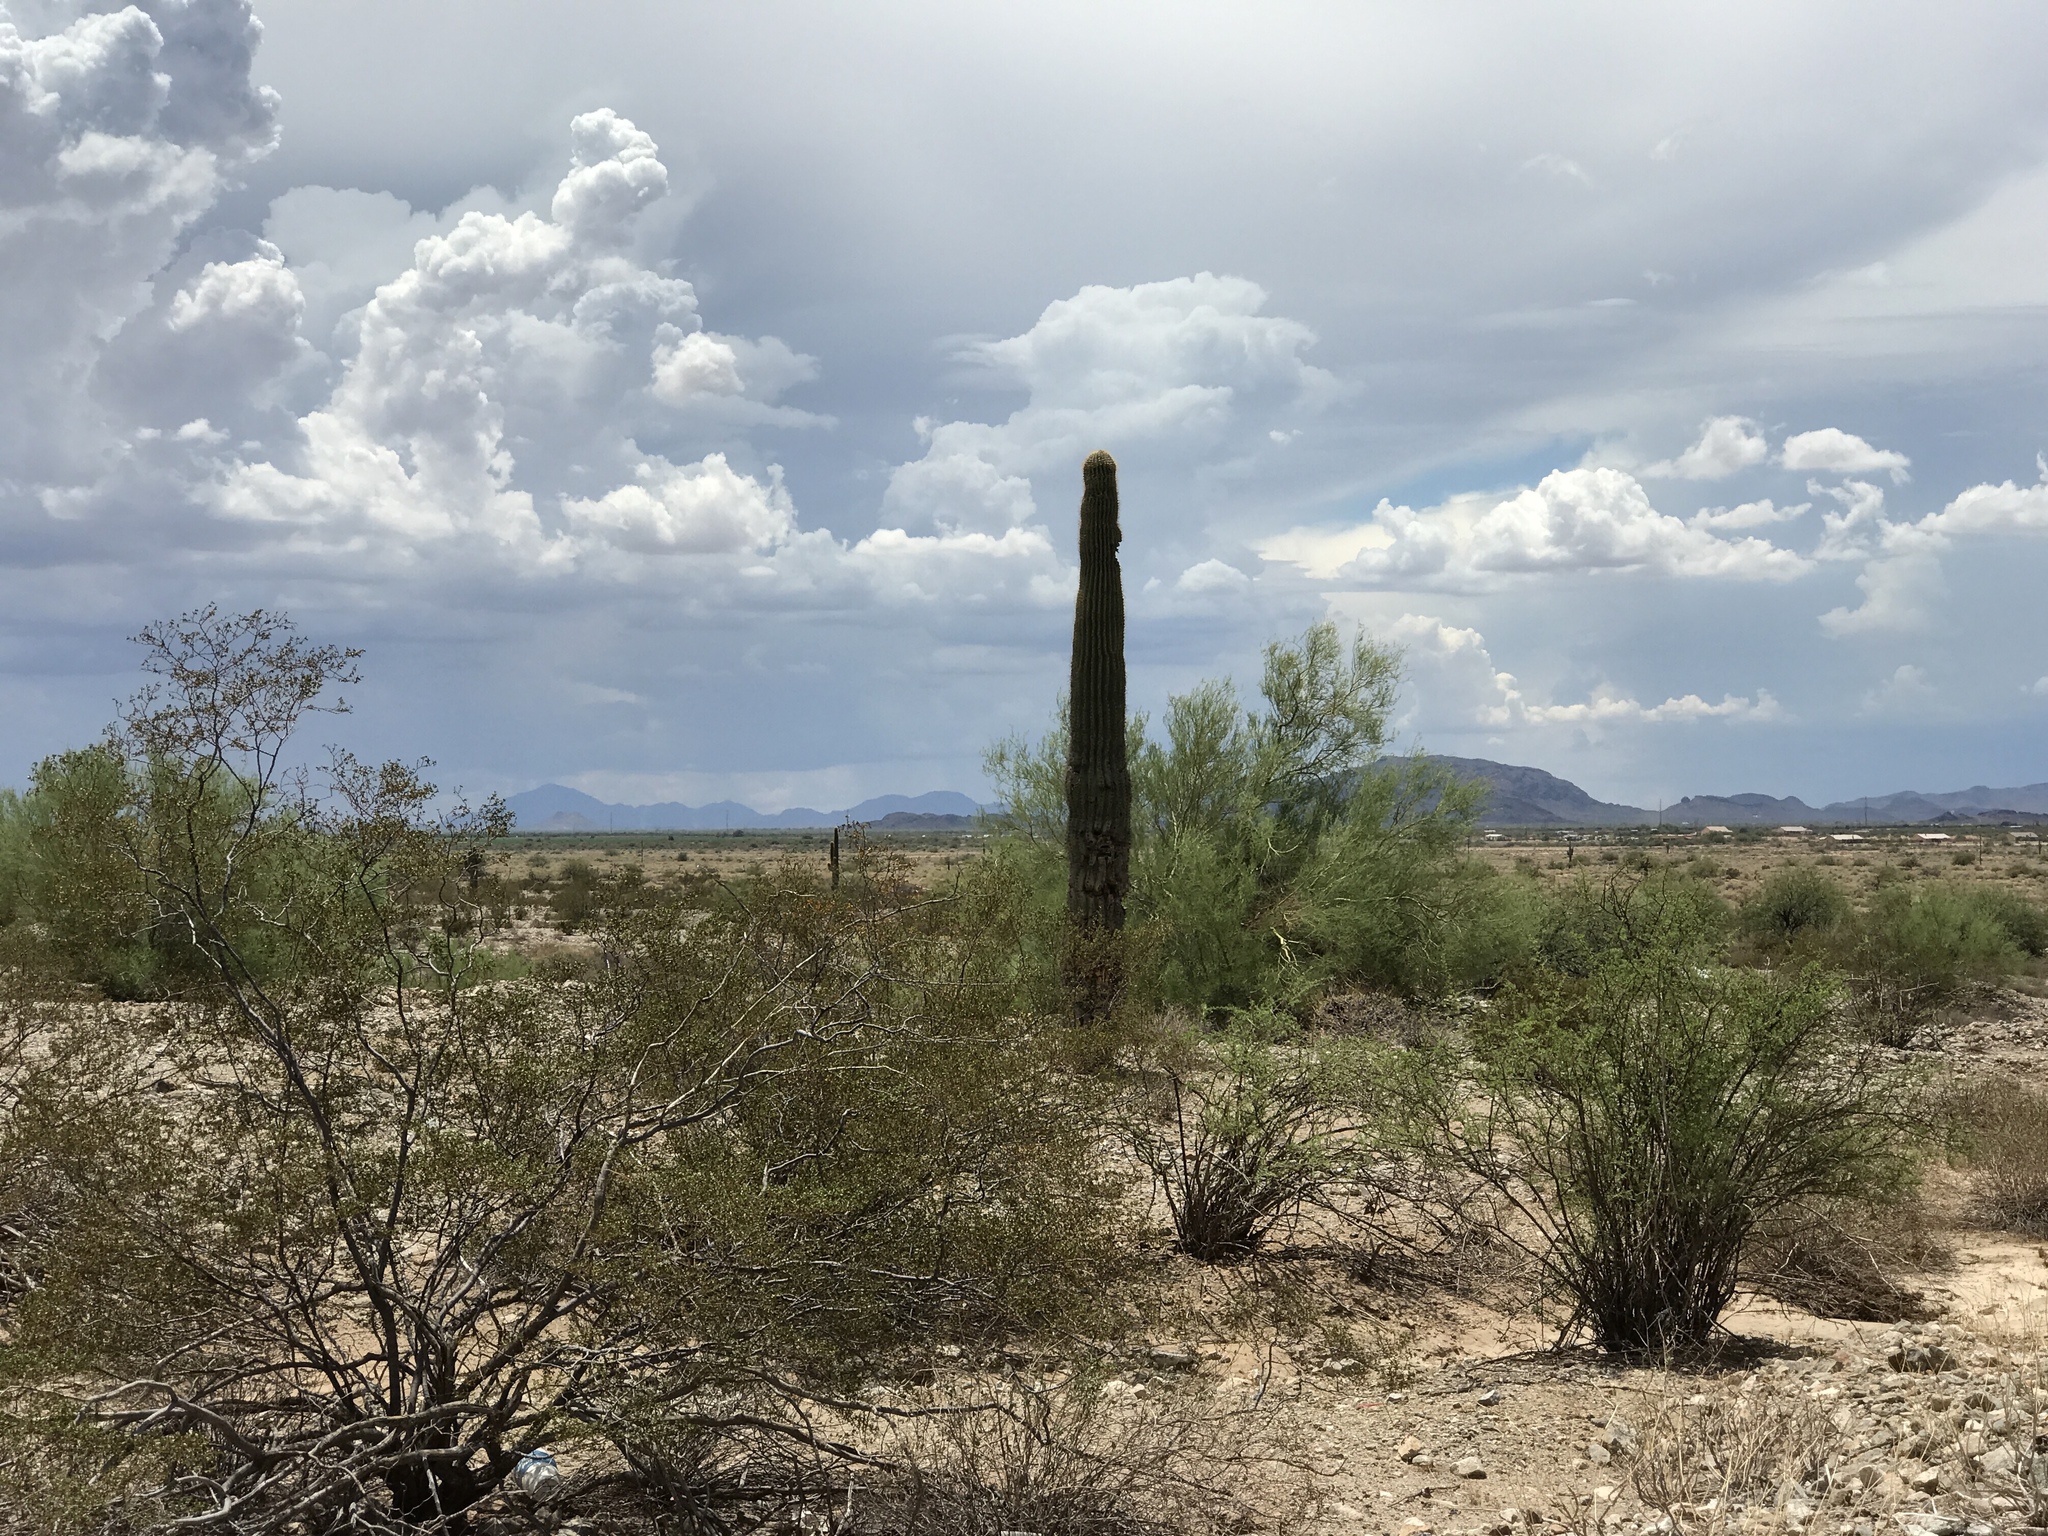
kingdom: Plantae
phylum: Tracheophyta
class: Magnoliopsida
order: Caryophyllales
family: Cactaceae
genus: Carnegiea
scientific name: Carnegiea gigantea
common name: Saguaro
